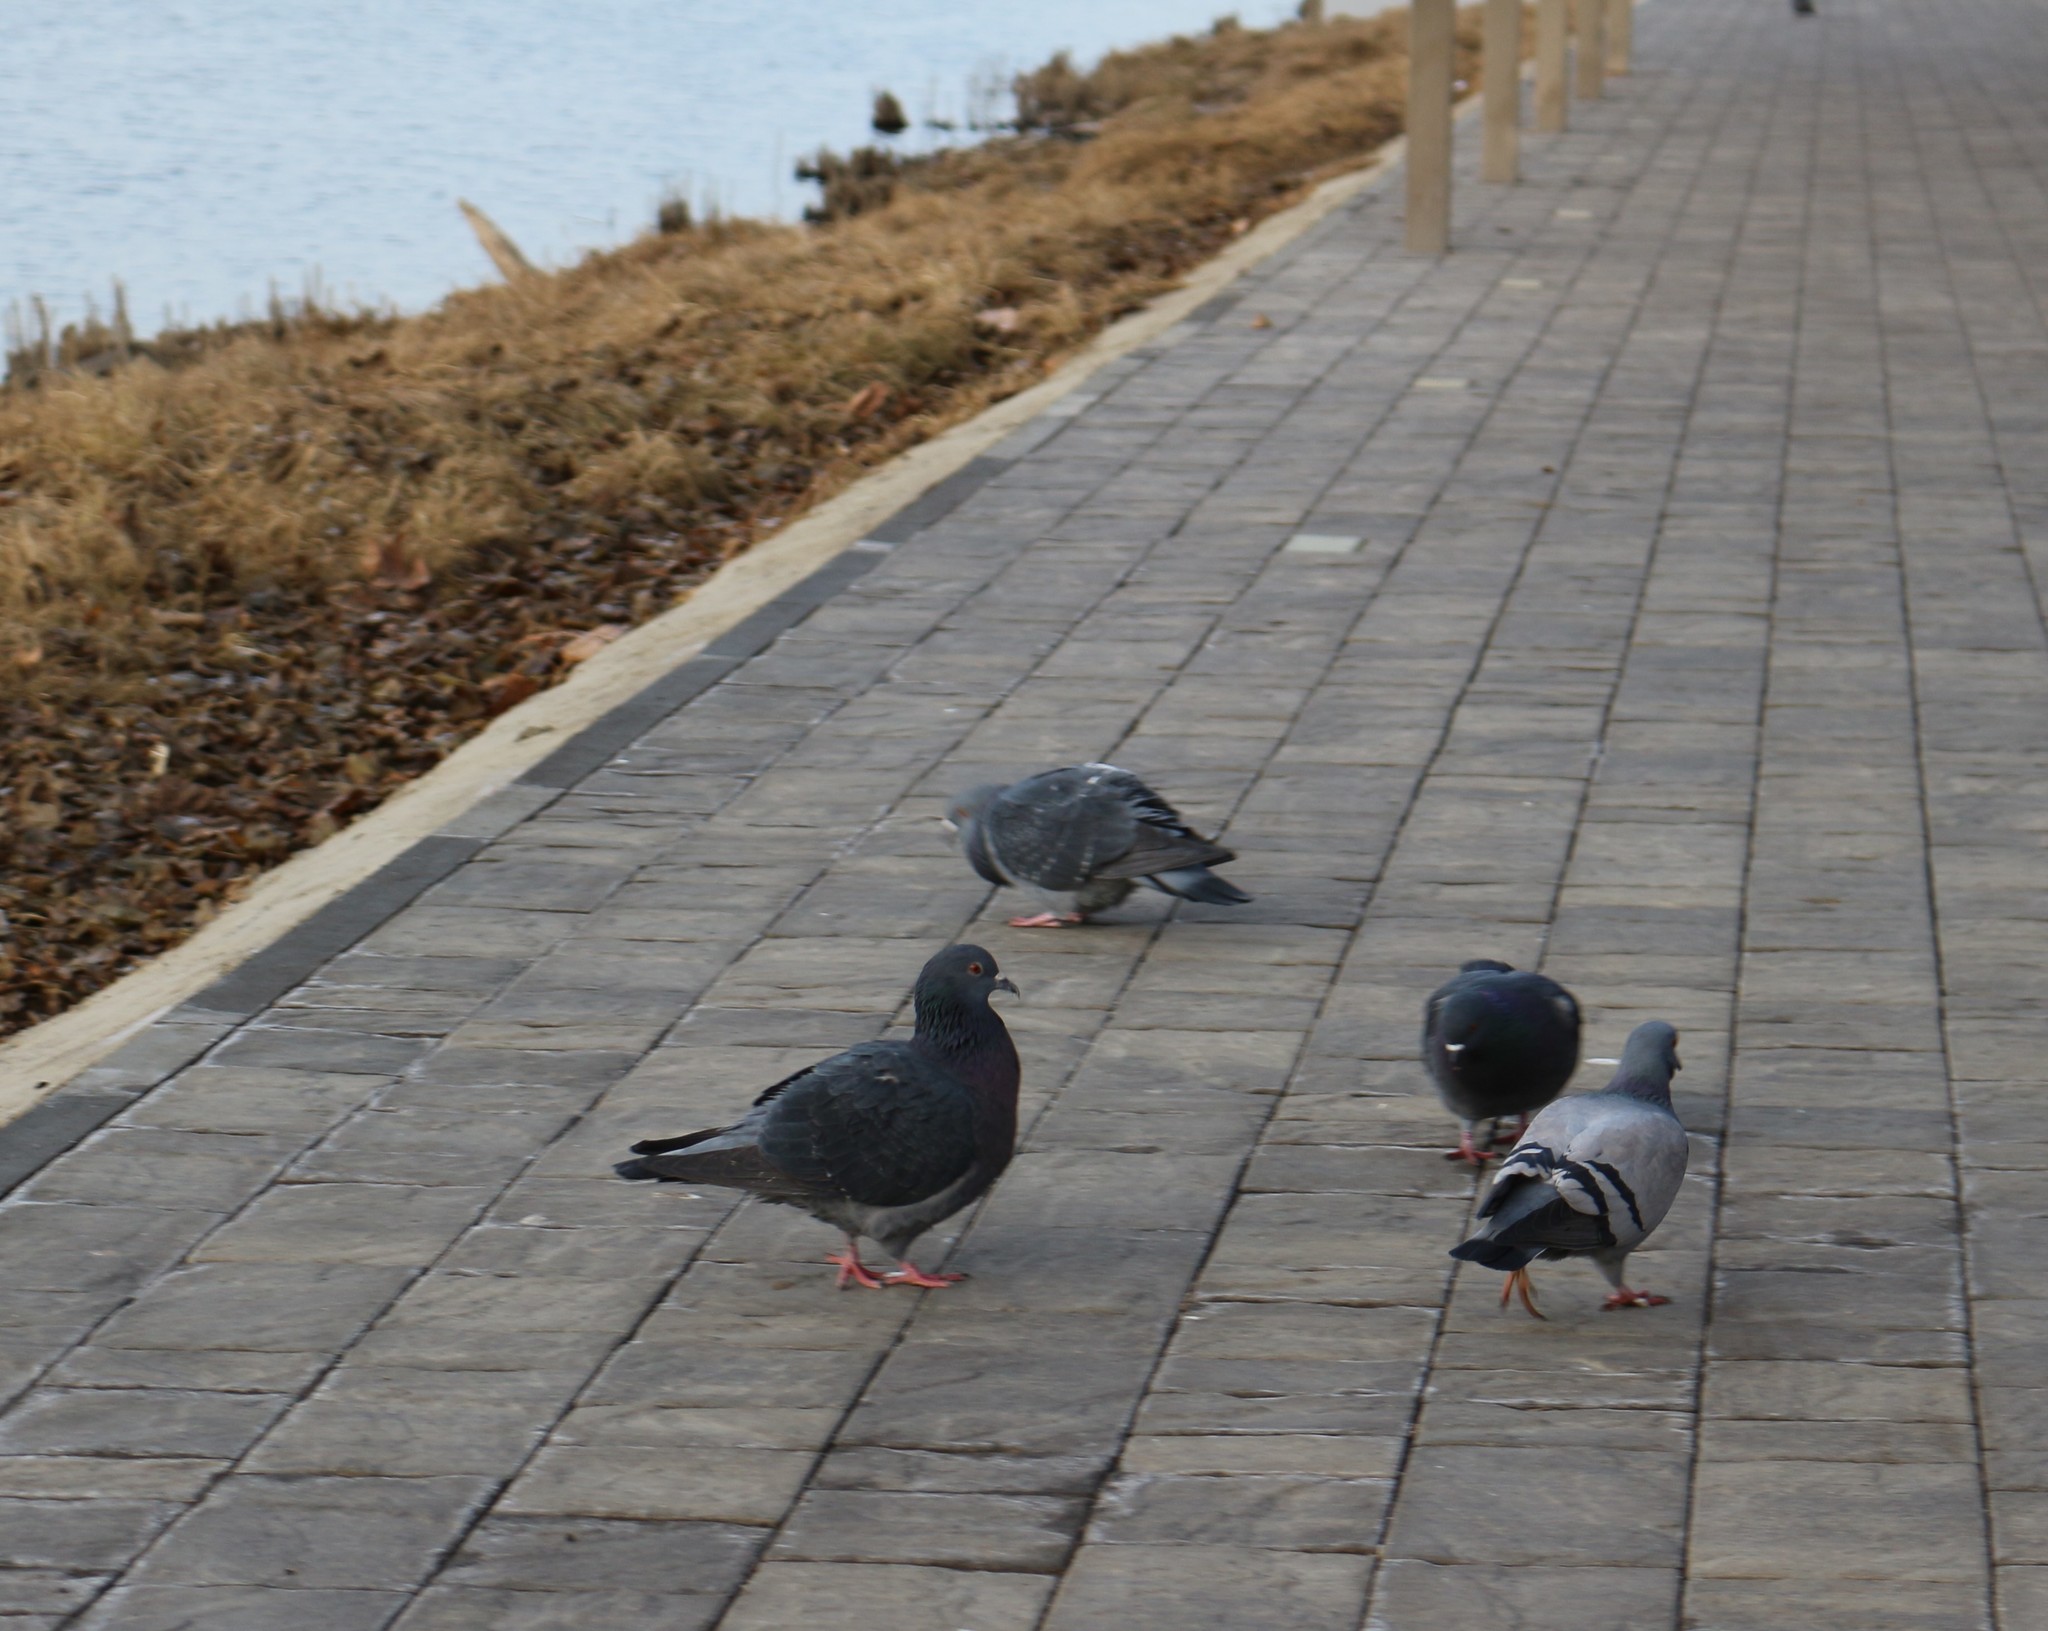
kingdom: Animalia
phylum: Chordata
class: Aves
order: Columbiformes
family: Columbidae
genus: Columba
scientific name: Columba livia
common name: Rock pigeon
